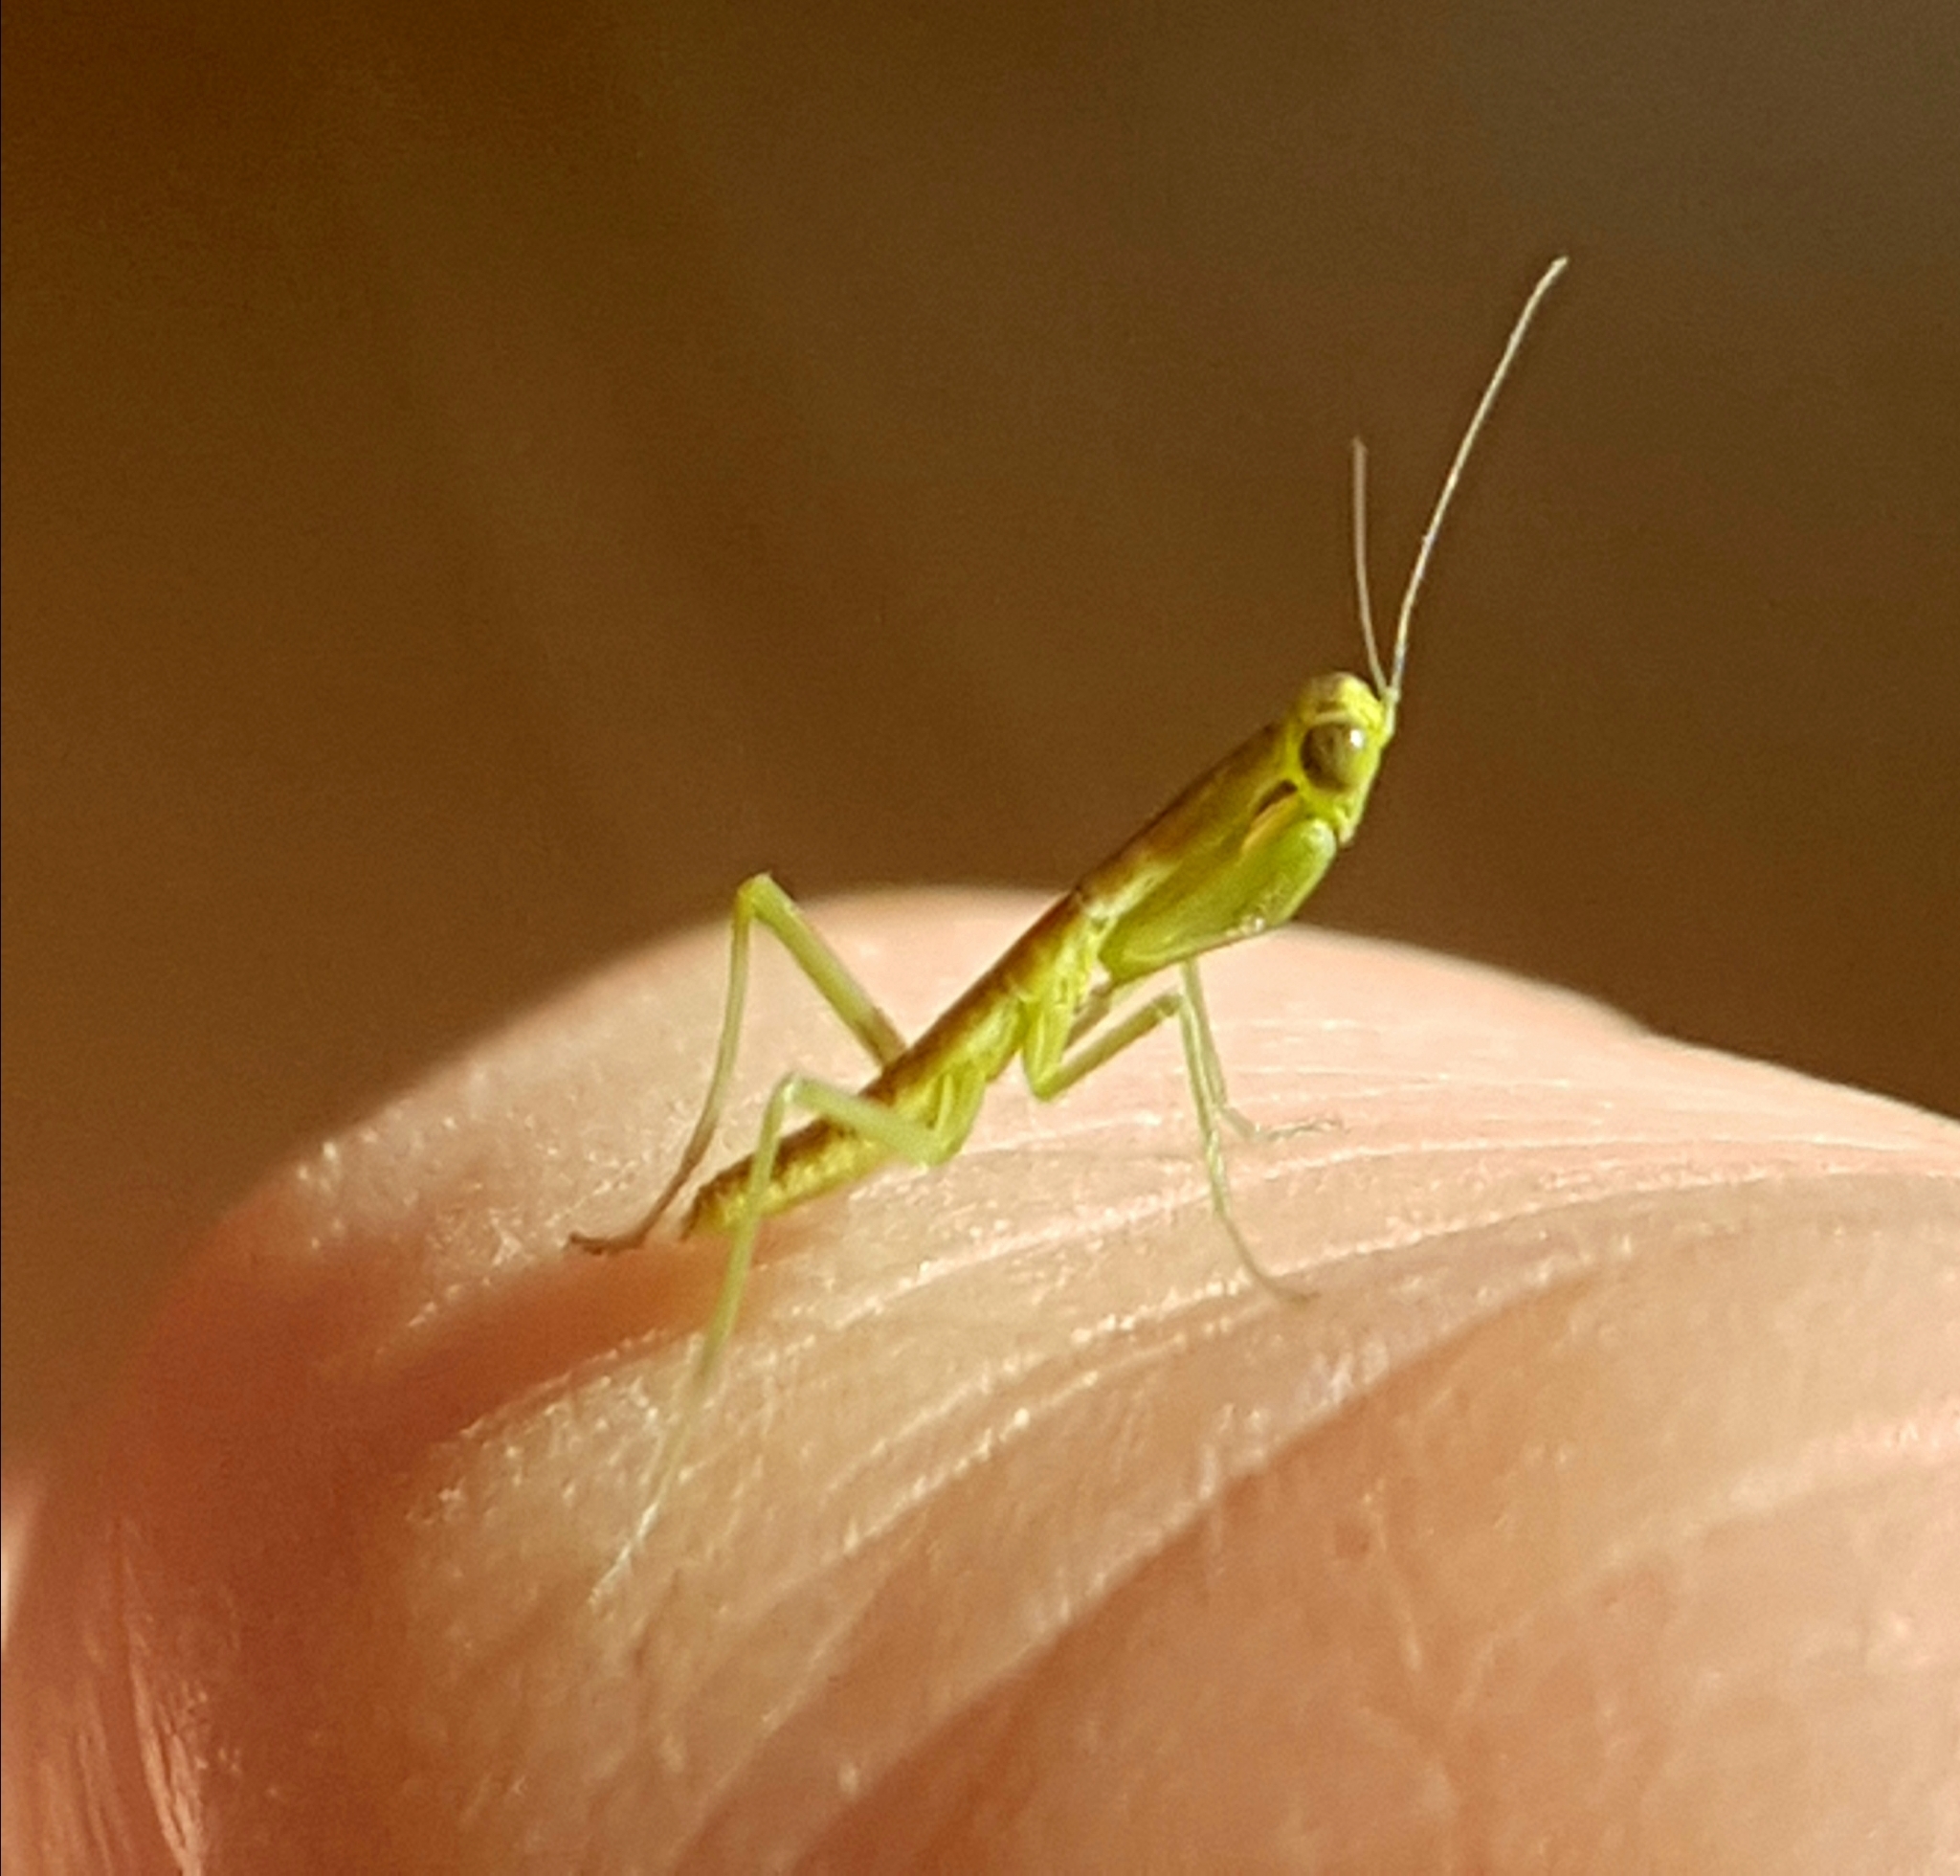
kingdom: Animalia
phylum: Arthropoda
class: Insecta
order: Mantodea
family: Mantidae
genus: Orthodera
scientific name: Orthodera ministralis
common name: Mantis
